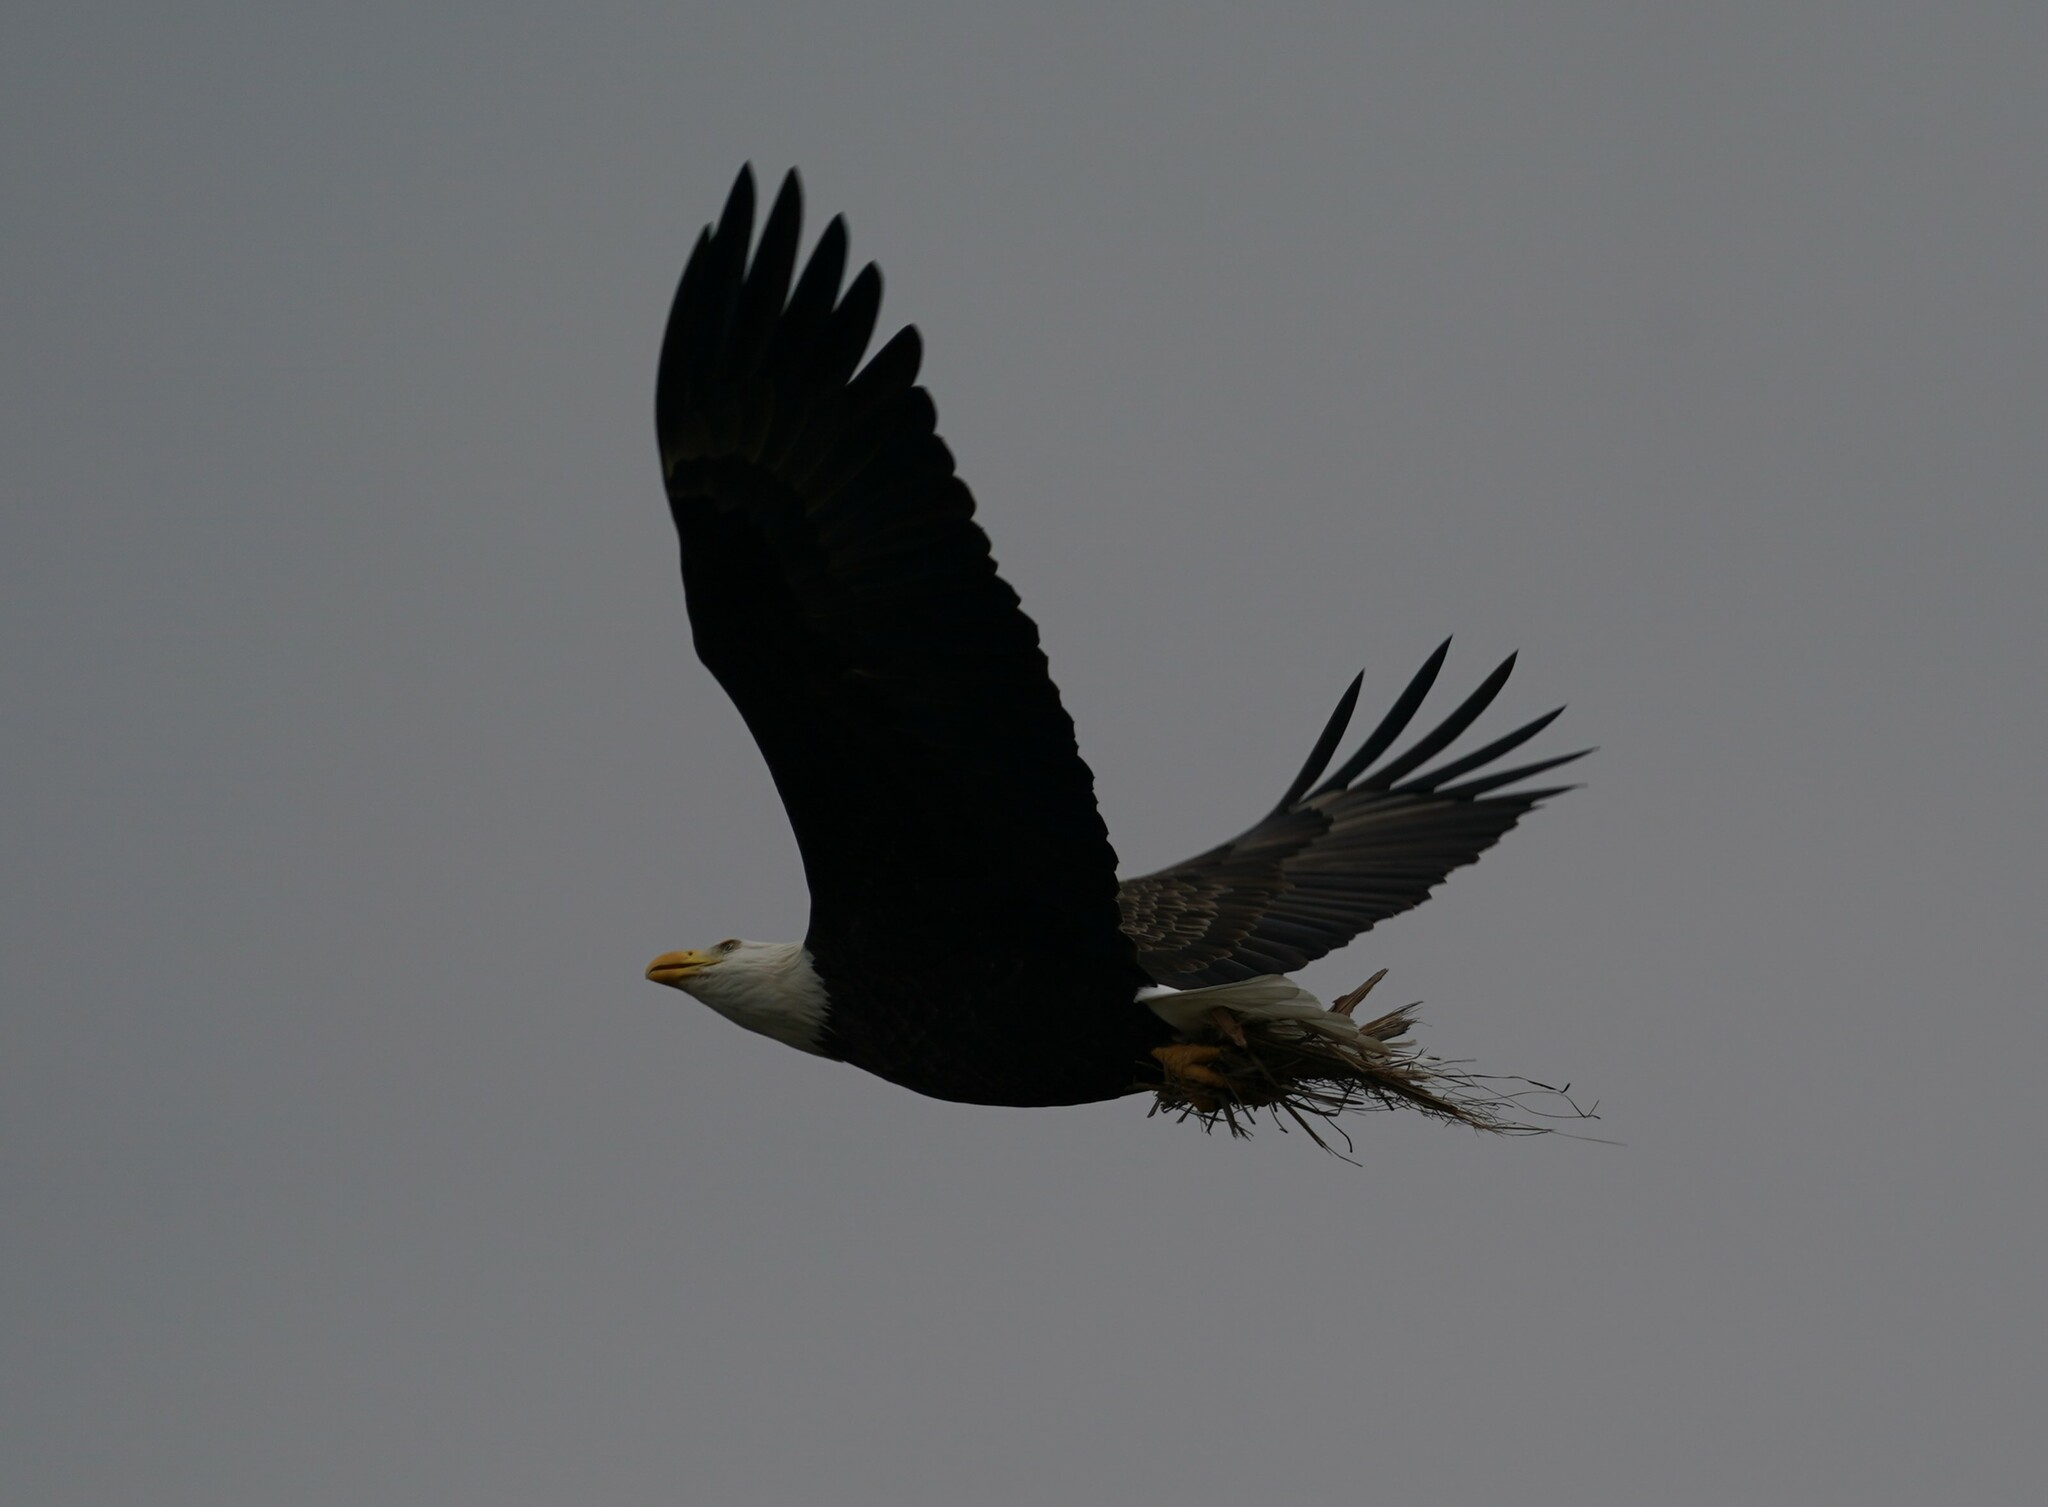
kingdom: Animalia
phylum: Chordata
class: Aves
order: Accipitriformes
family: Accipitridae
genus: Haliaeetus
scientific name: Haliaeetus leucocephalus
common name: Bald eagle
